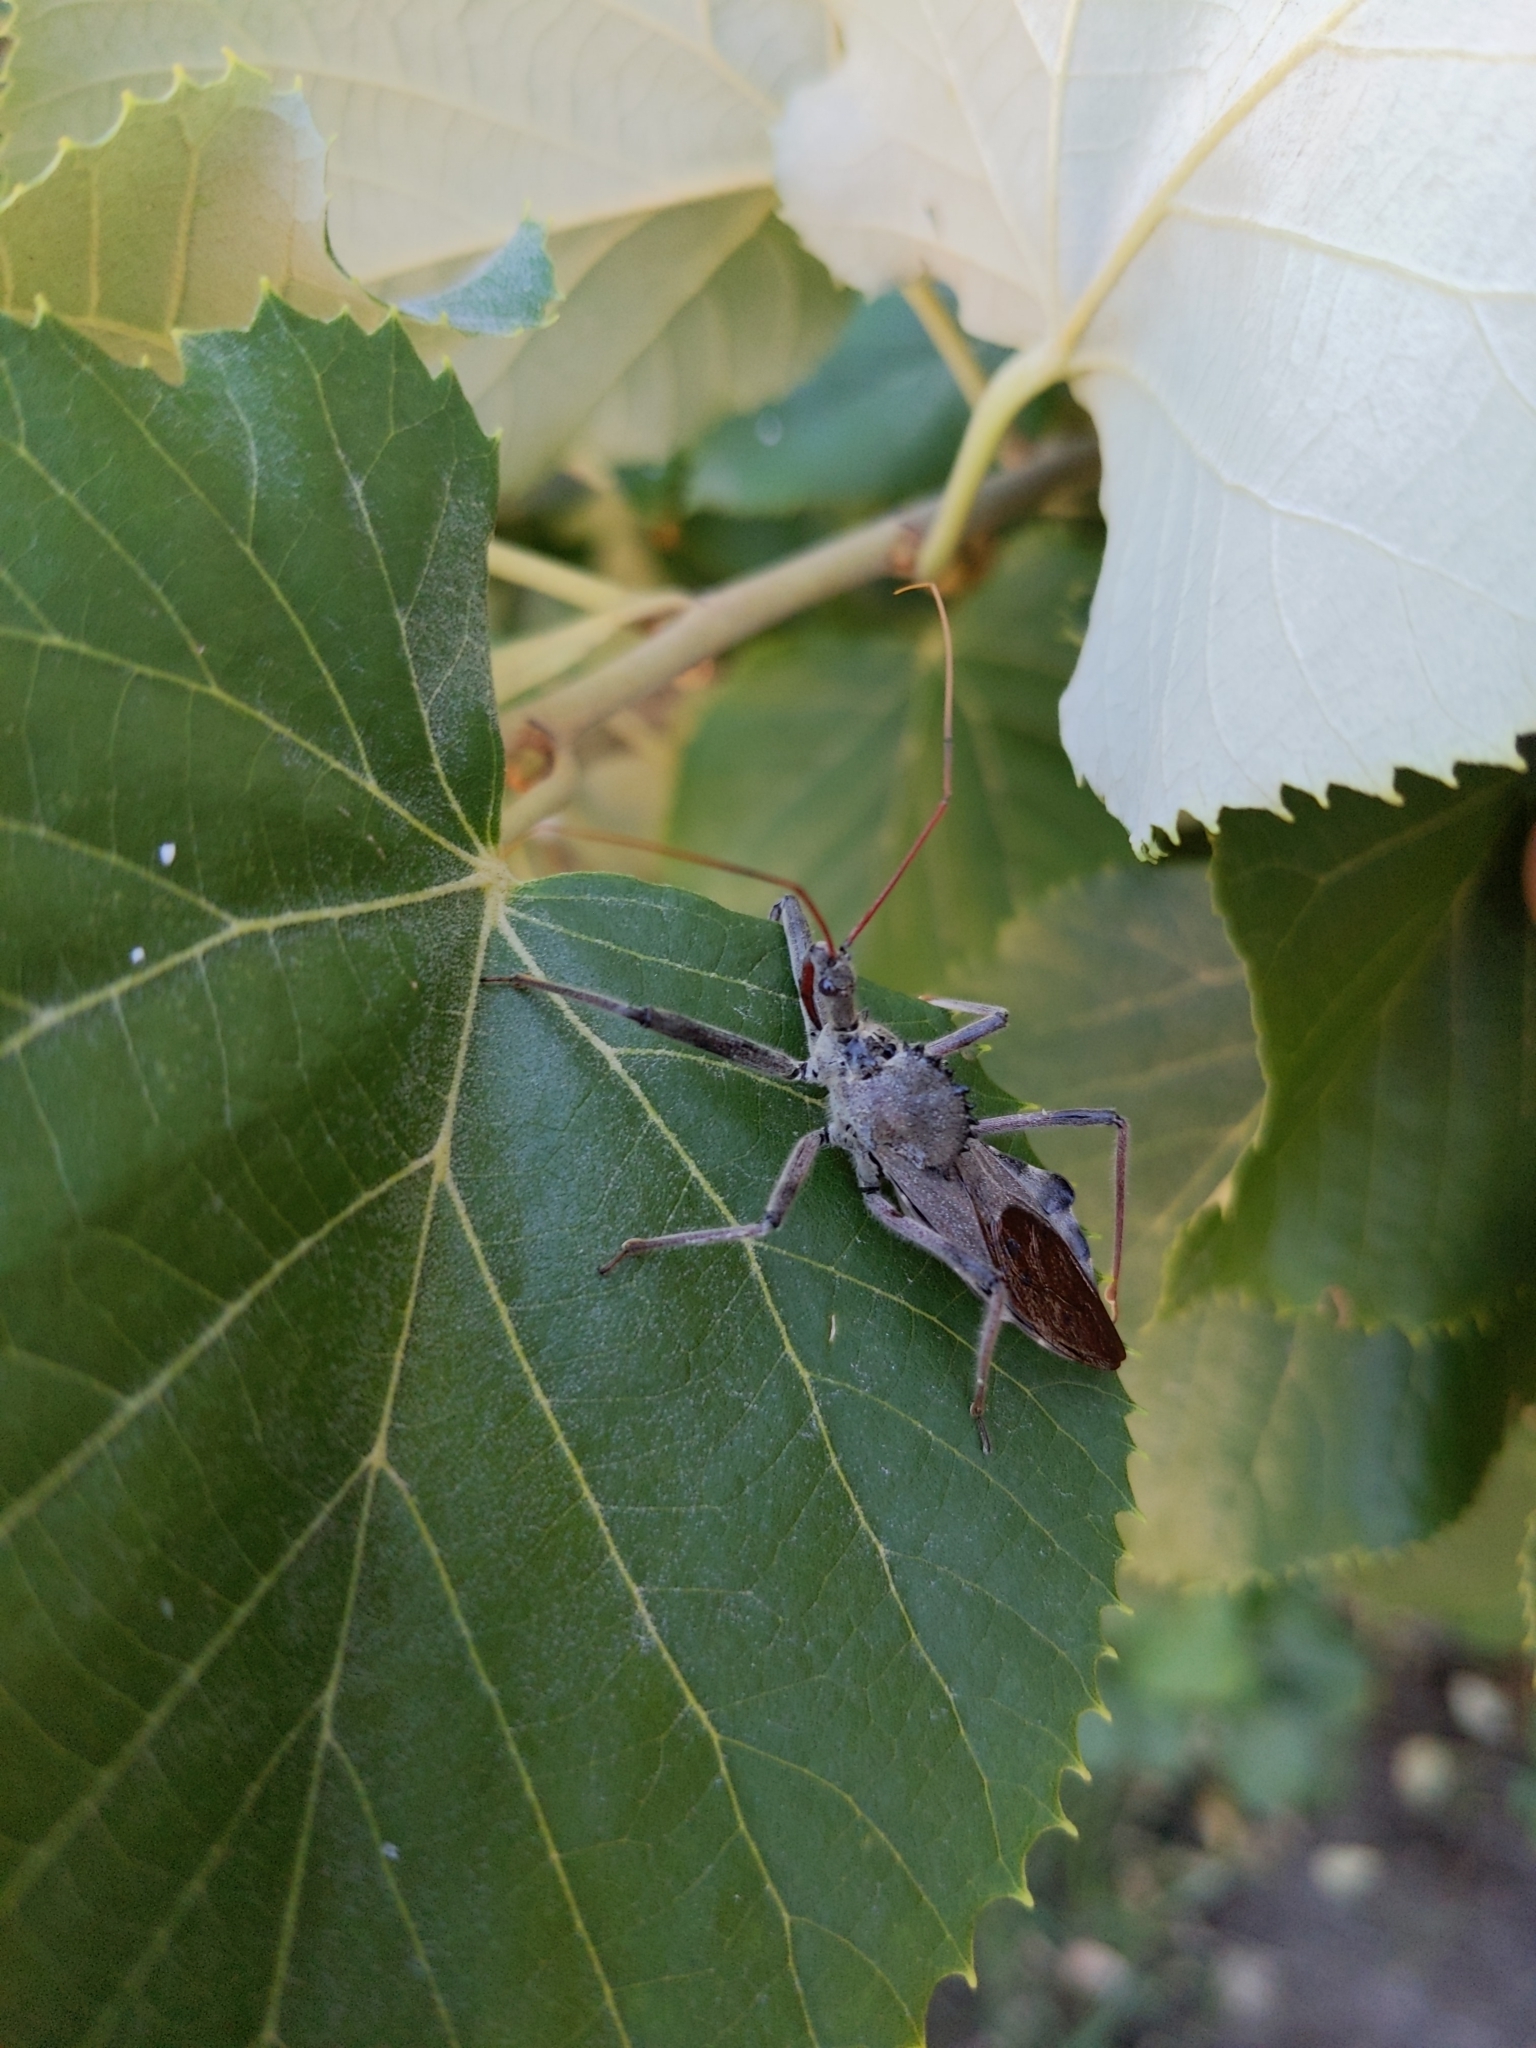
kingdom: Animalia
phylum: Arthropoda
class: Insecta
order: Hemiptera
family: Reduviidae
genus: Arilus
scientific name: Arilus cristatus
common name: North american wheel bug
